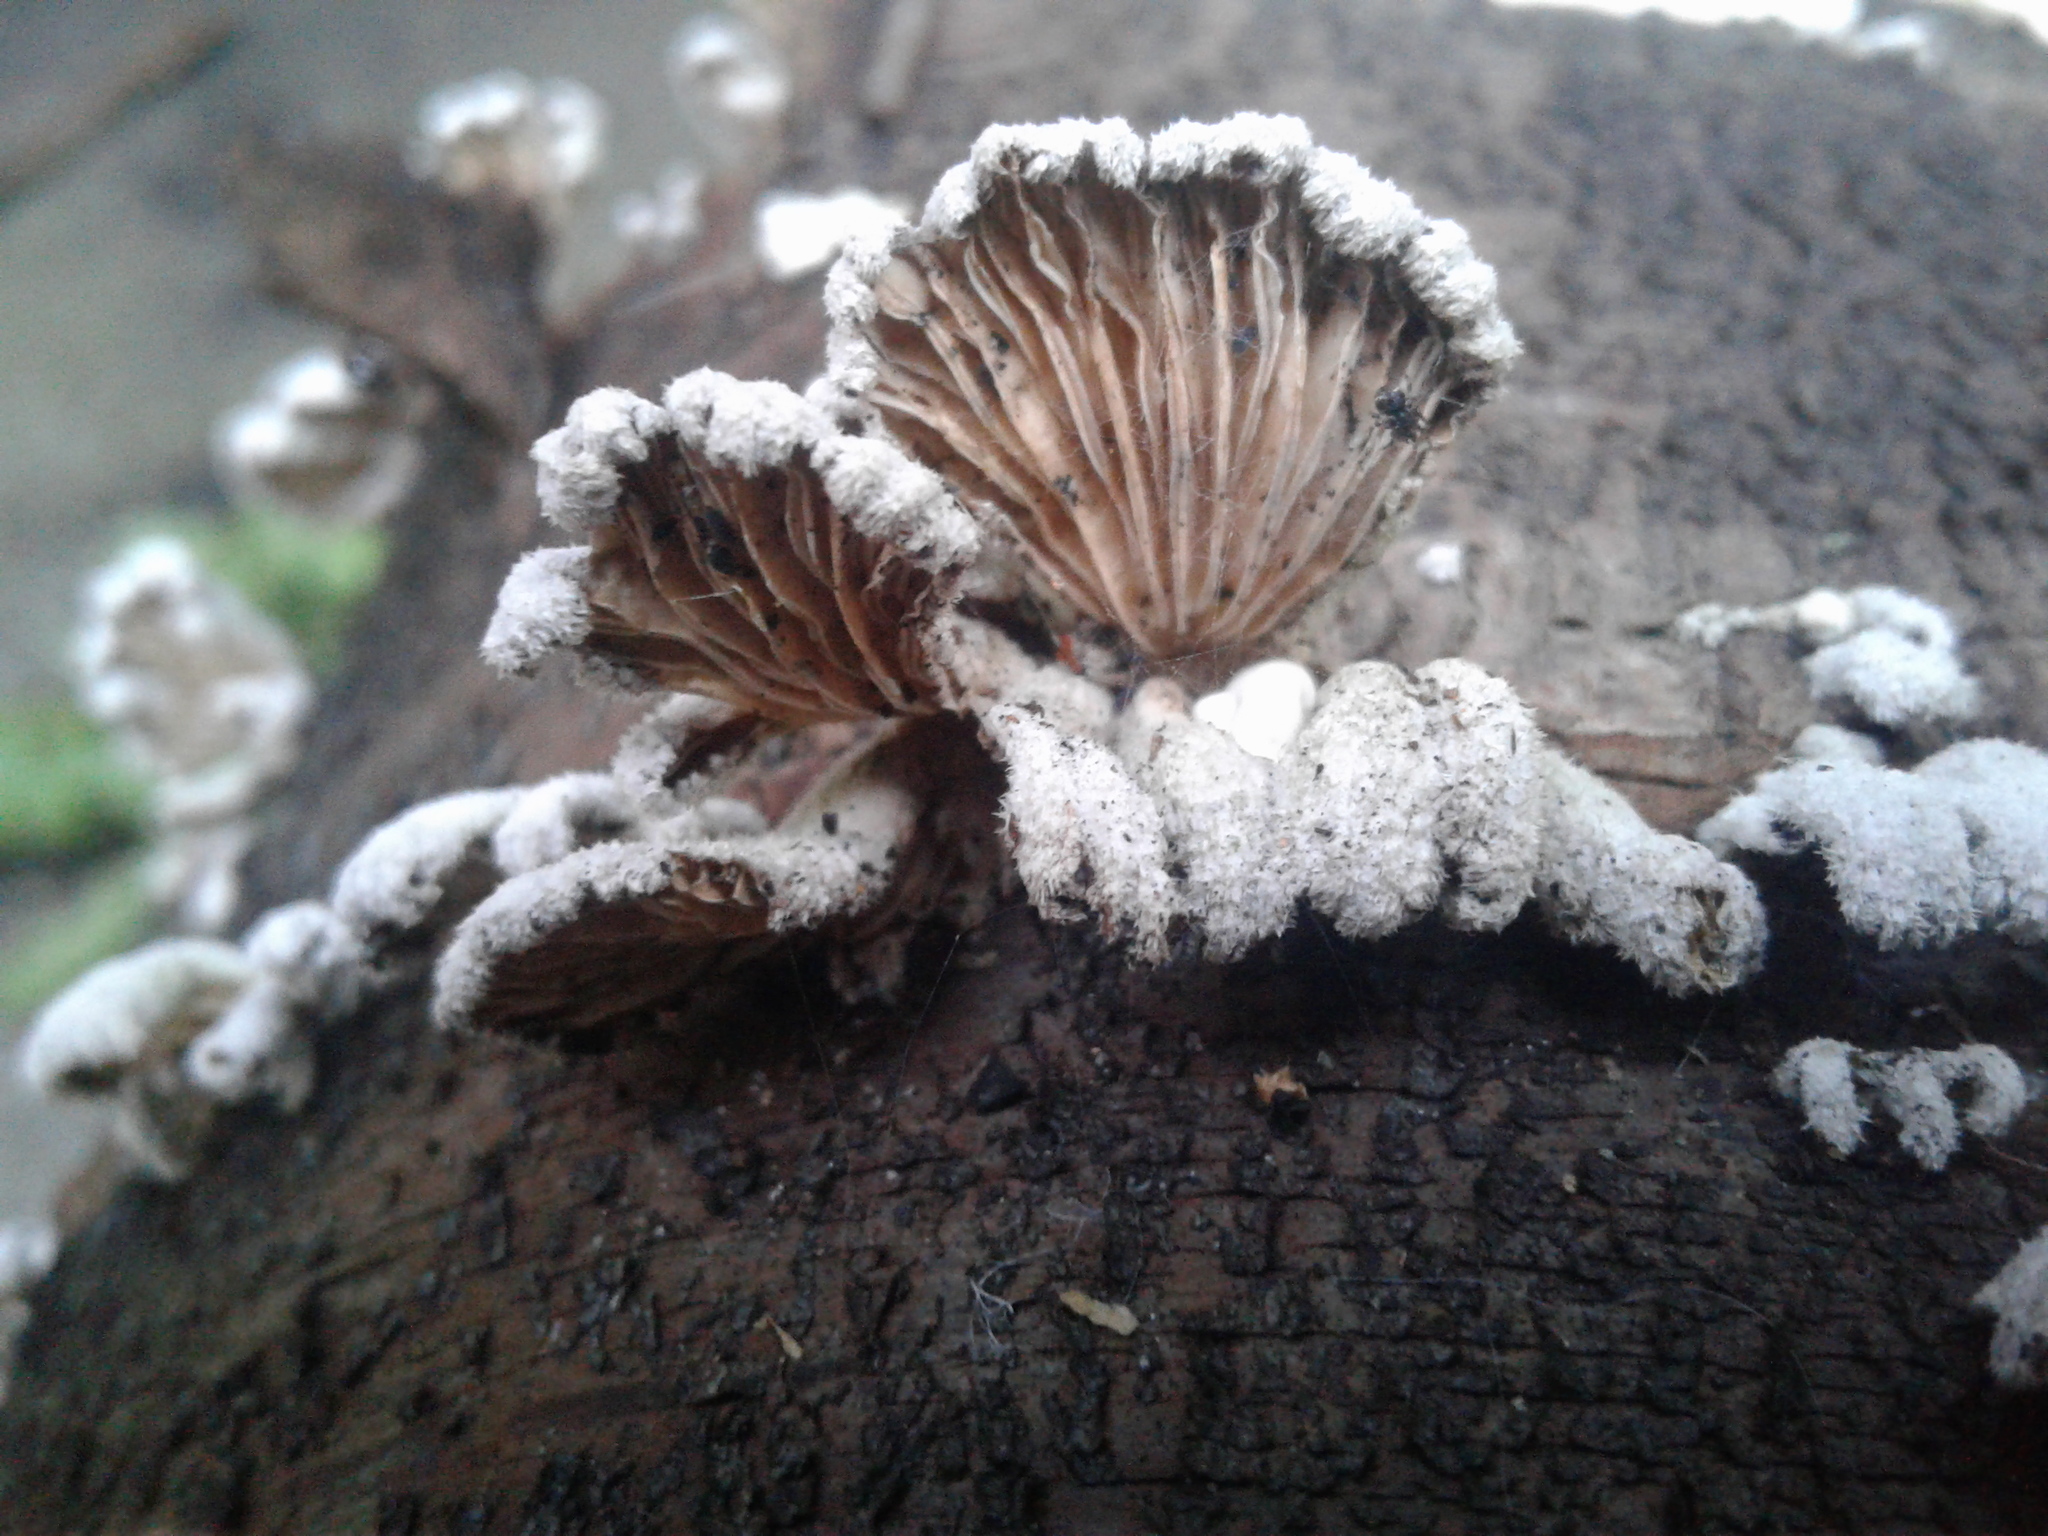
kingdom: Fungi
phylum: Basidiomycota
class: Agaricomycetes
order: Agaricales
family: Schizophyllaceae
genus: Schizophyllum
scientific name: Schizophyllum commune
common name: Common porecrust
